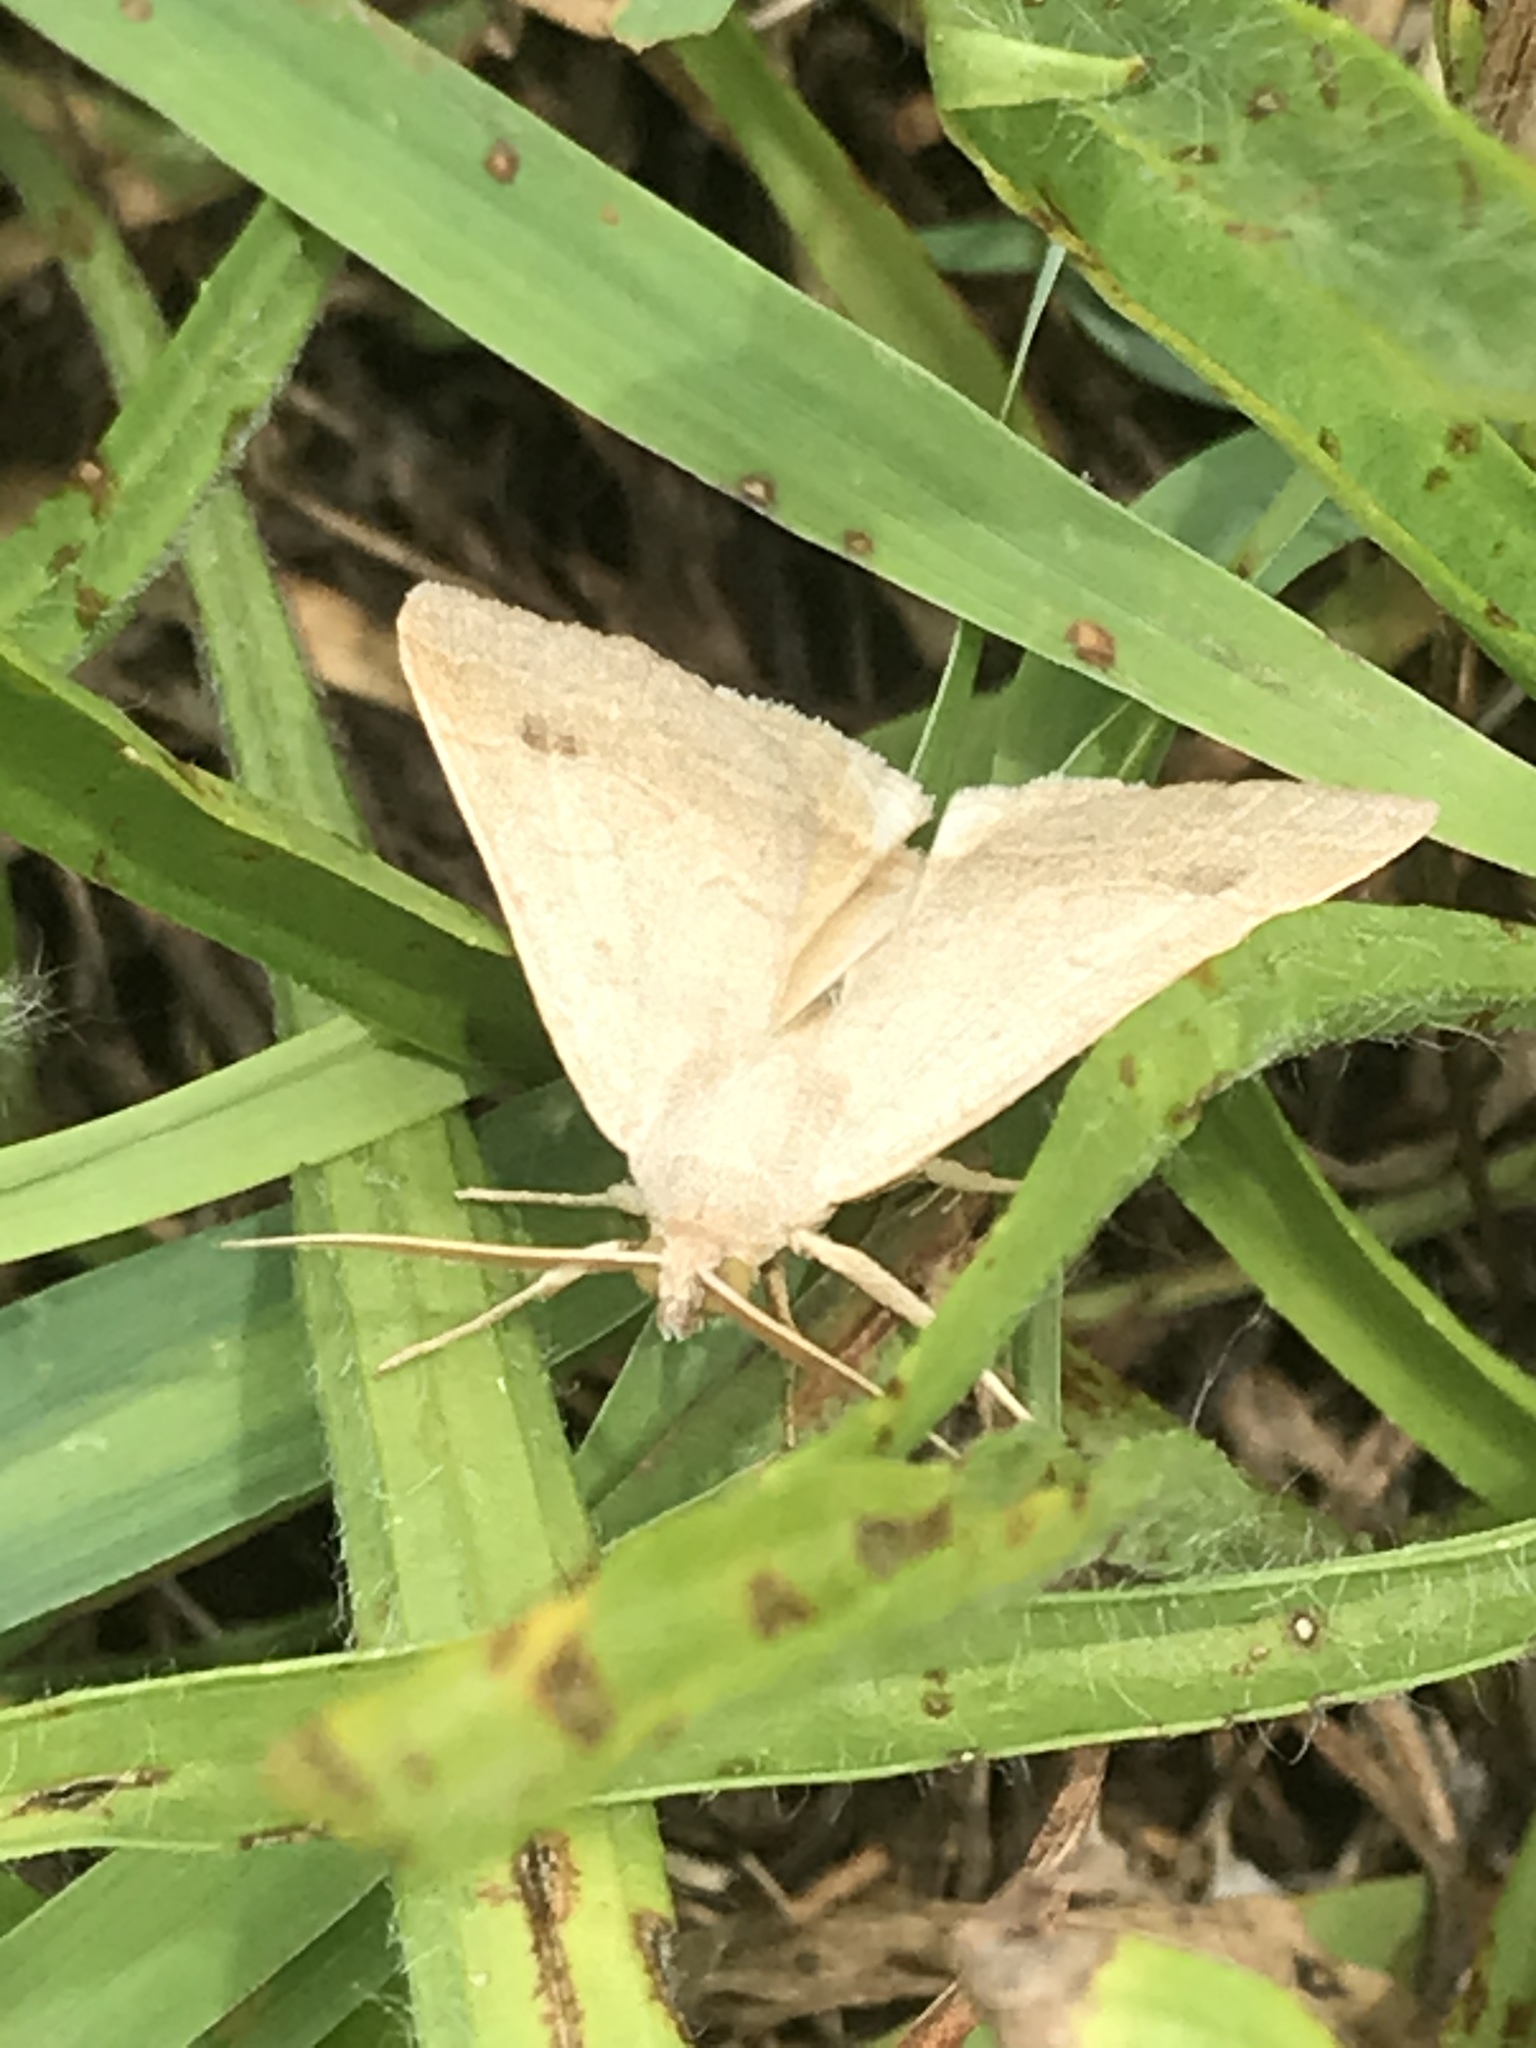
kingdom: Animalia
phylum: Arthropoda
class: Insecta
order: Lepidoptera
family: Erebidae
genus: Caenurgia
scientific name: Caenurgia chloropha
